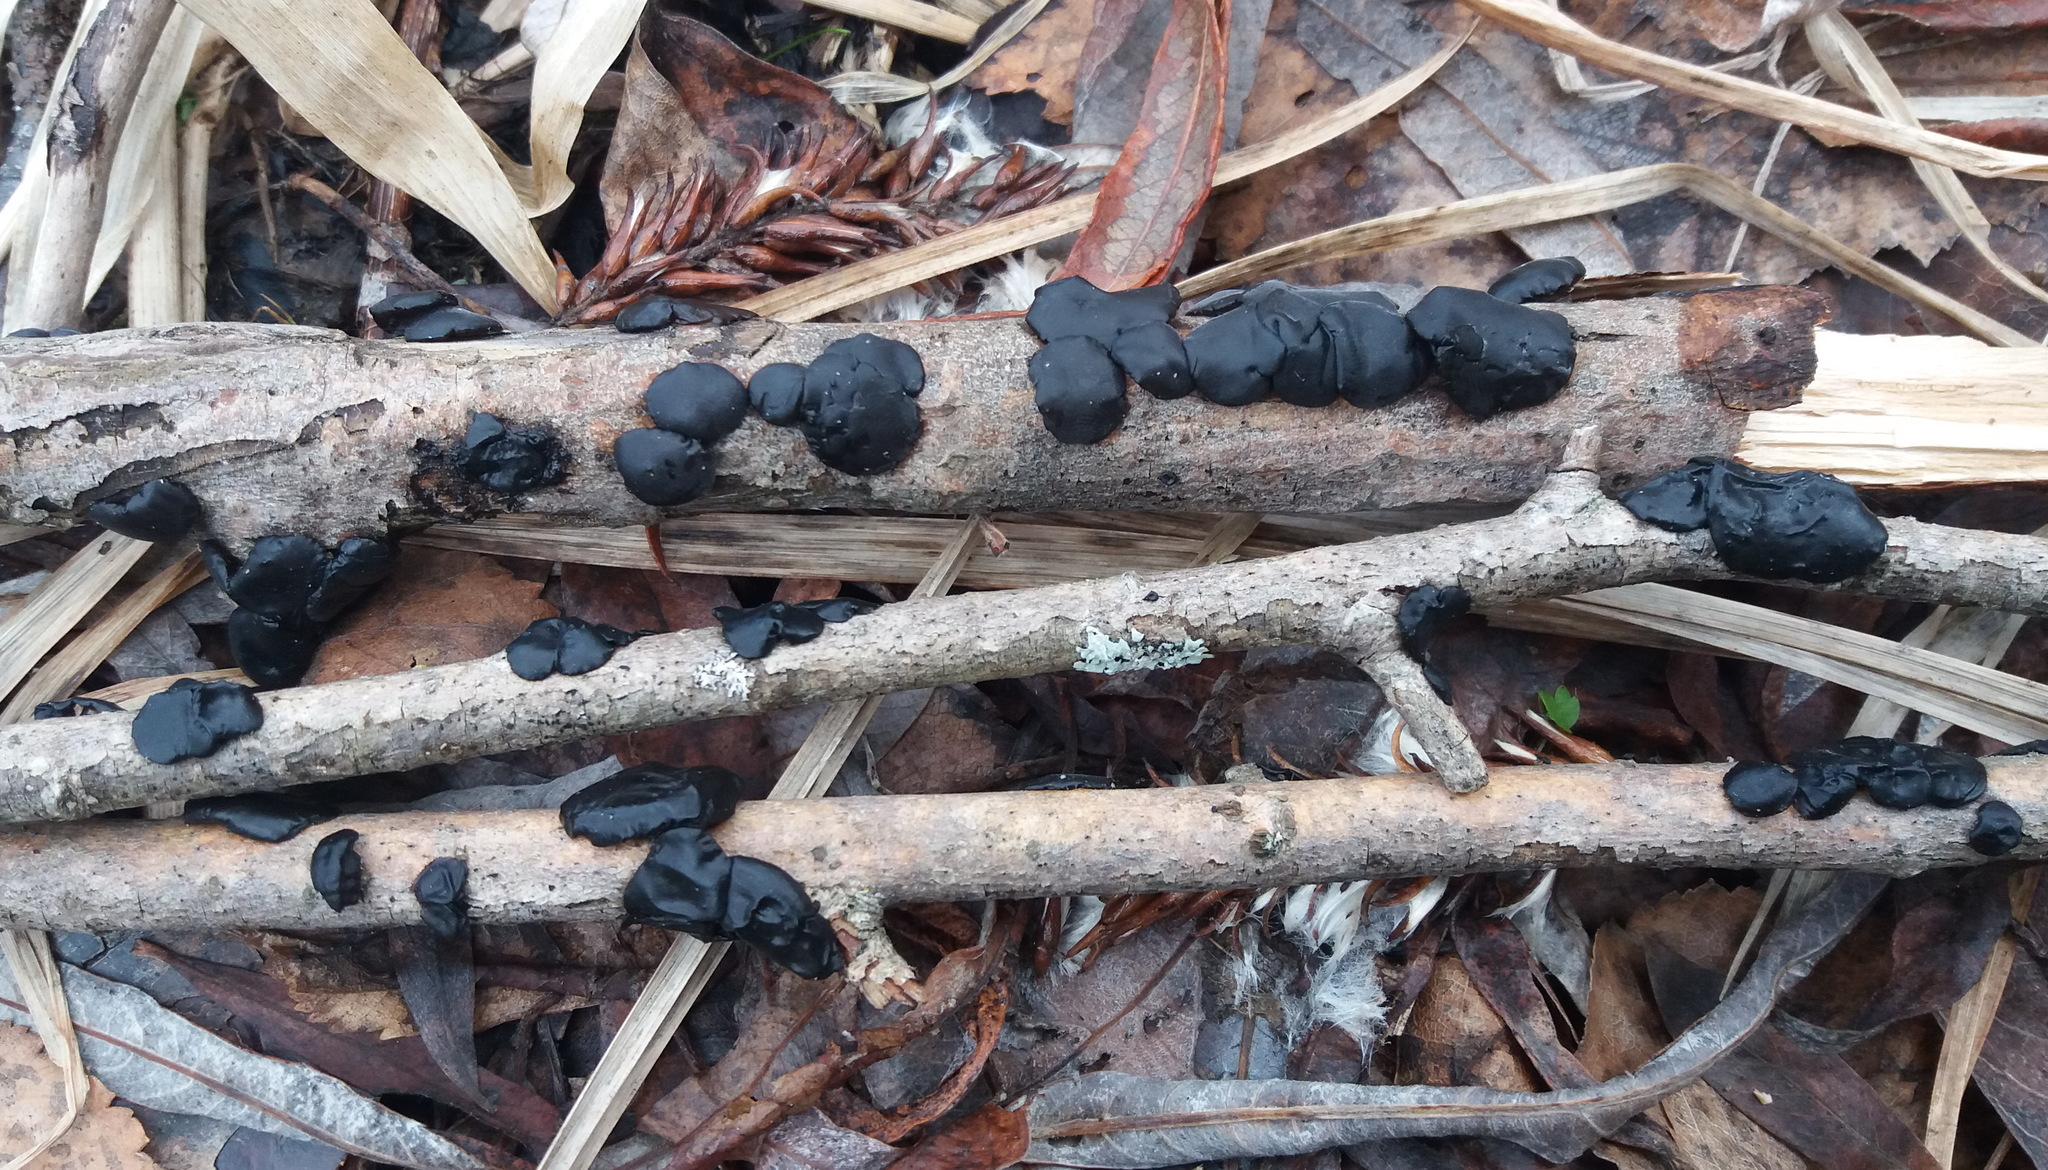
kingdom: Fungi
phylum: Basidiomycota
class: Agaricomycetes
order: Auriculariales
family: Auriculariaceae
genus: Exidia
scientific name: Exidia glandulosa
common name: Witches' butter
